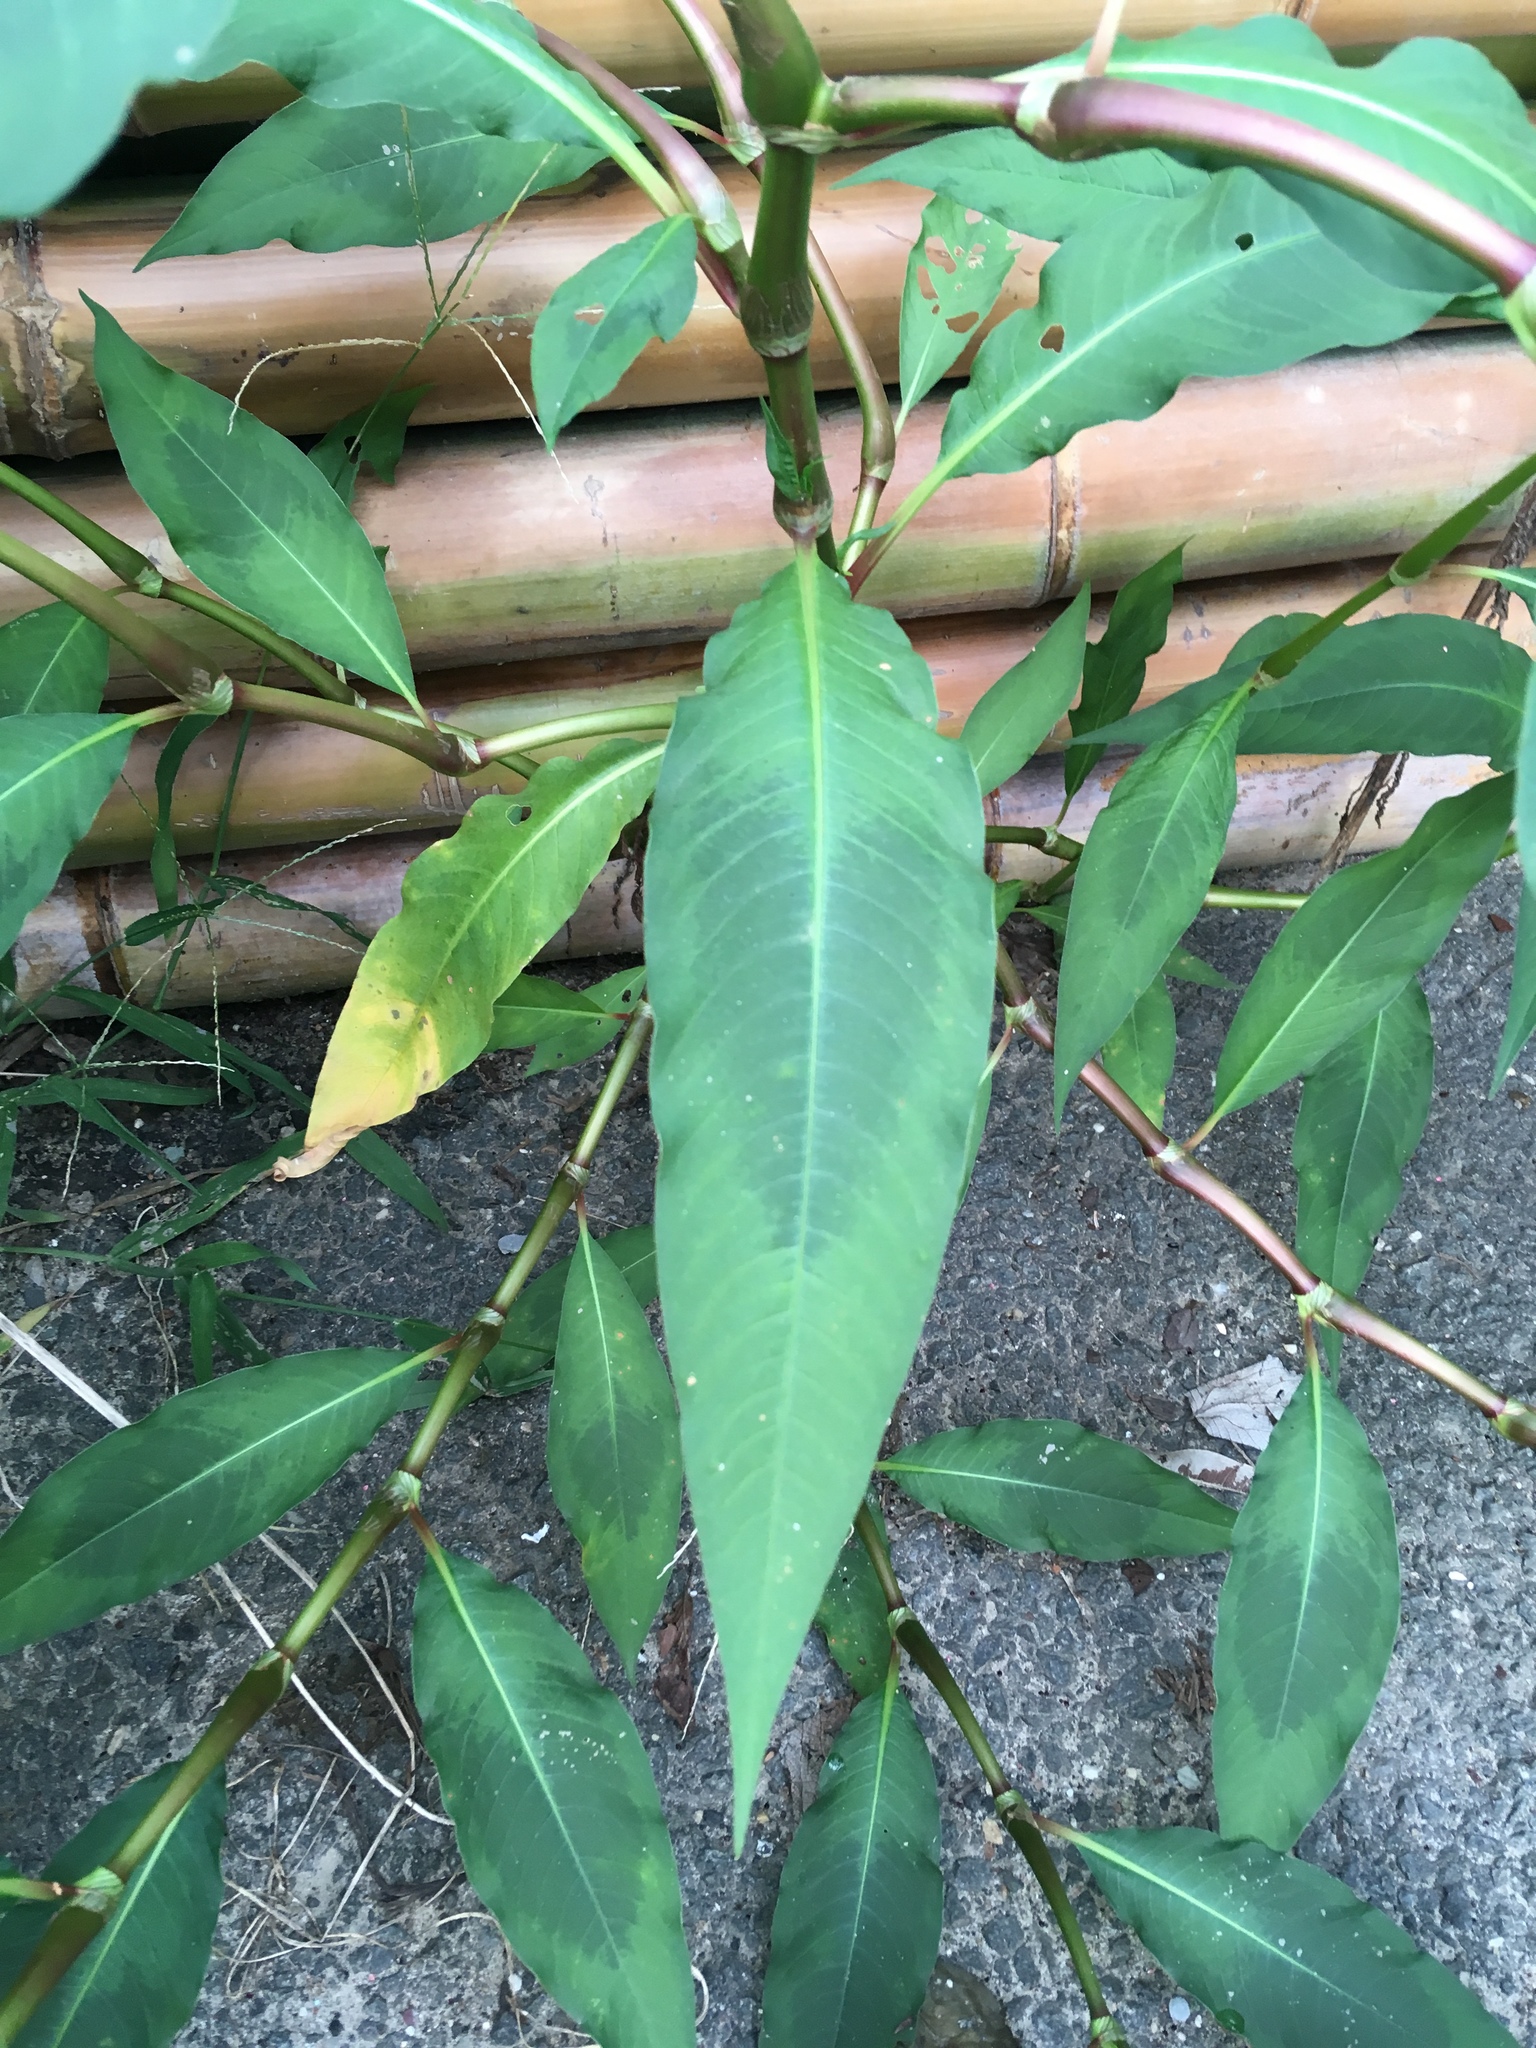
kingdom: Plantae
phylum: Tracheophyta
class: Magnoliopsida
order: Caryophyllales
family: Polygonaceae
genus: Persicaria
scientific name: Persicaria extremiorientalis
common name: Far-eastern smartweed
